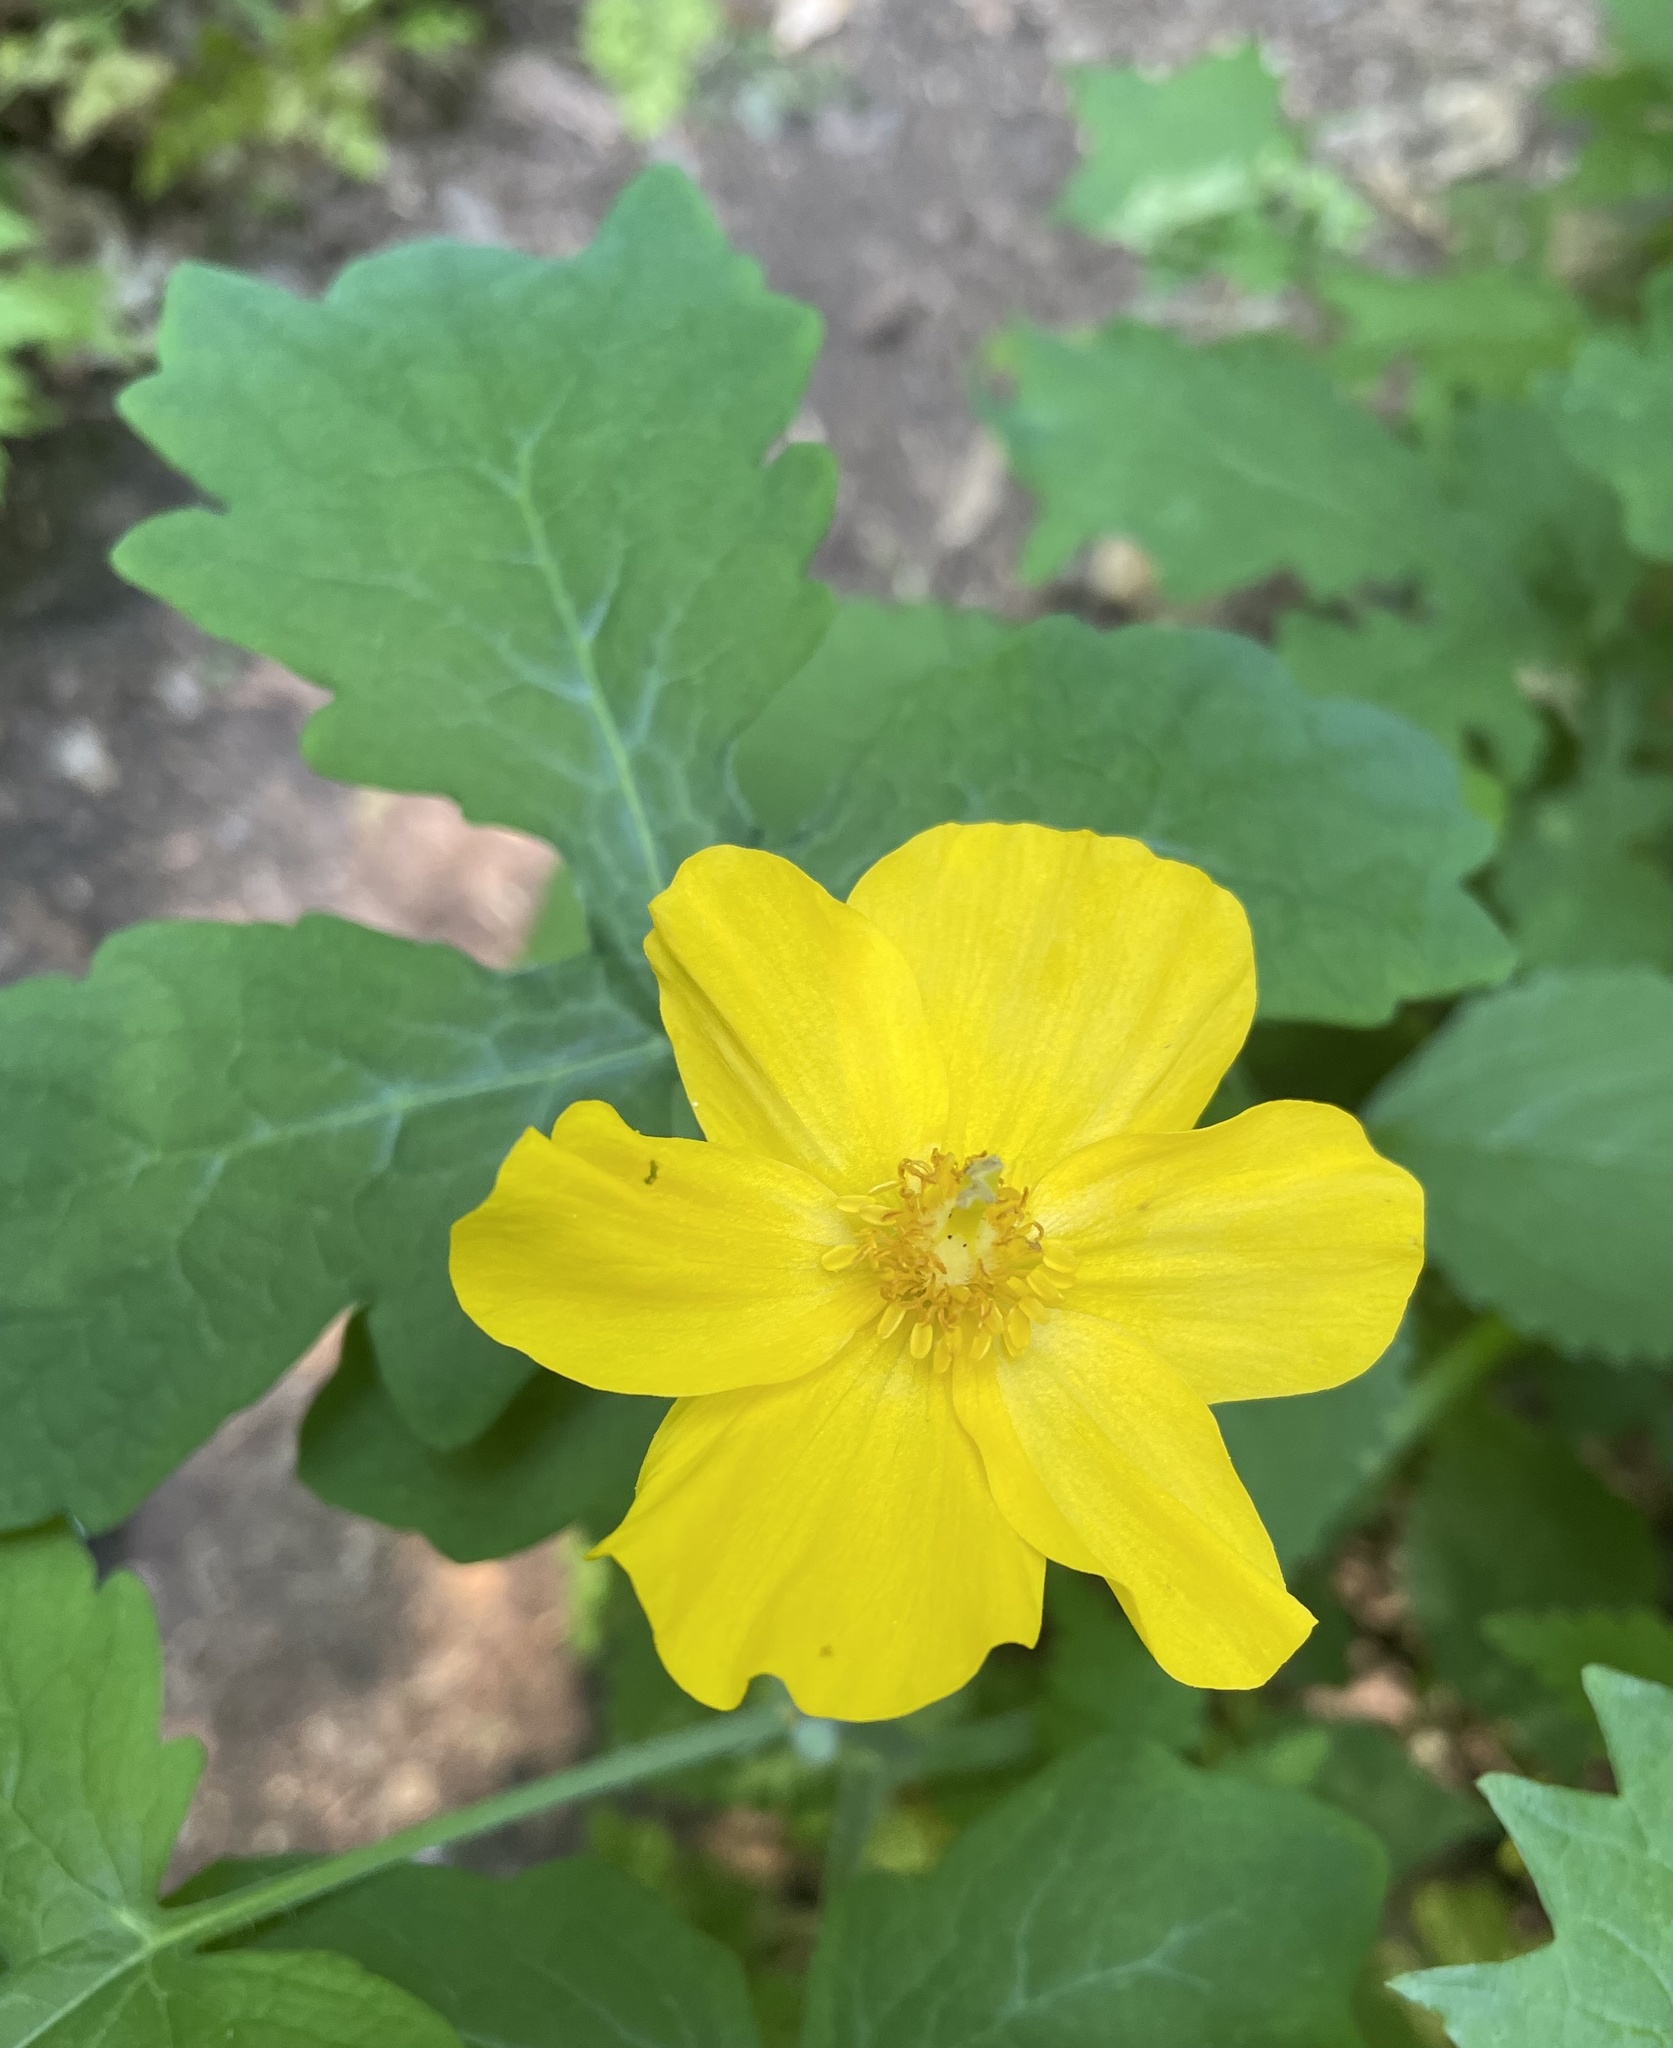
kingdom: Plantae
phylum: Tracheophyta
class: Magnoliopsida
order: Ranunculales
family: Papaveraceae
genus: Stylophorum
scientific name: Stylophorum diphyllum
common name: Celandine poppy
